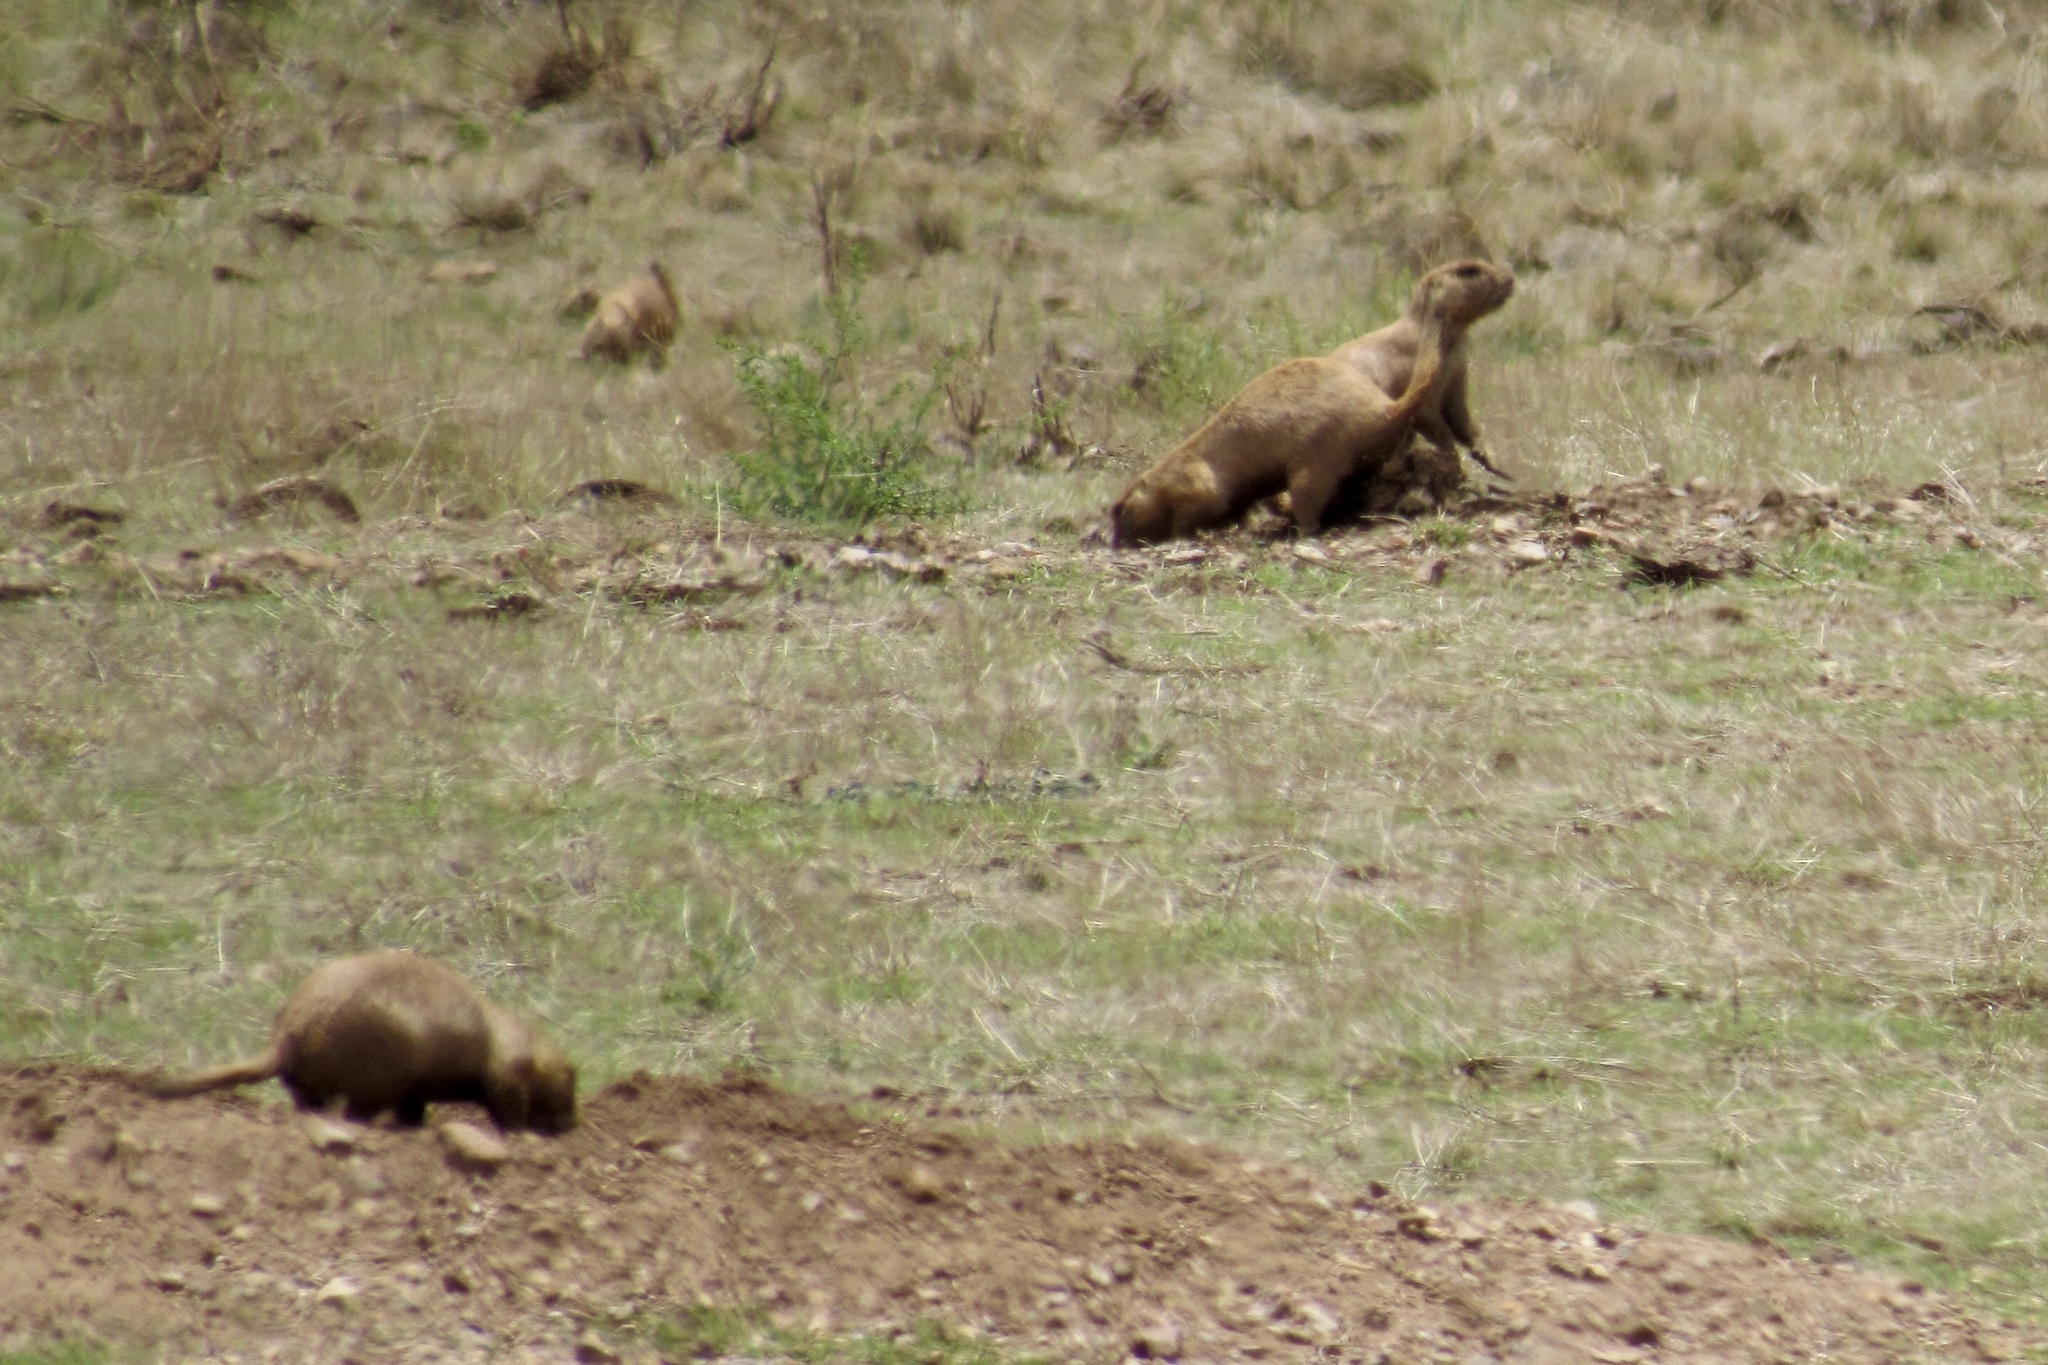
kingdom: Animalia
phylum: Chordata
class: Mammalia
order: Rodentia
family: Sciuridae
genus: Cynomys
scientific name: Cynomys ludovicianus
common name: Black-tailed prairie dog
